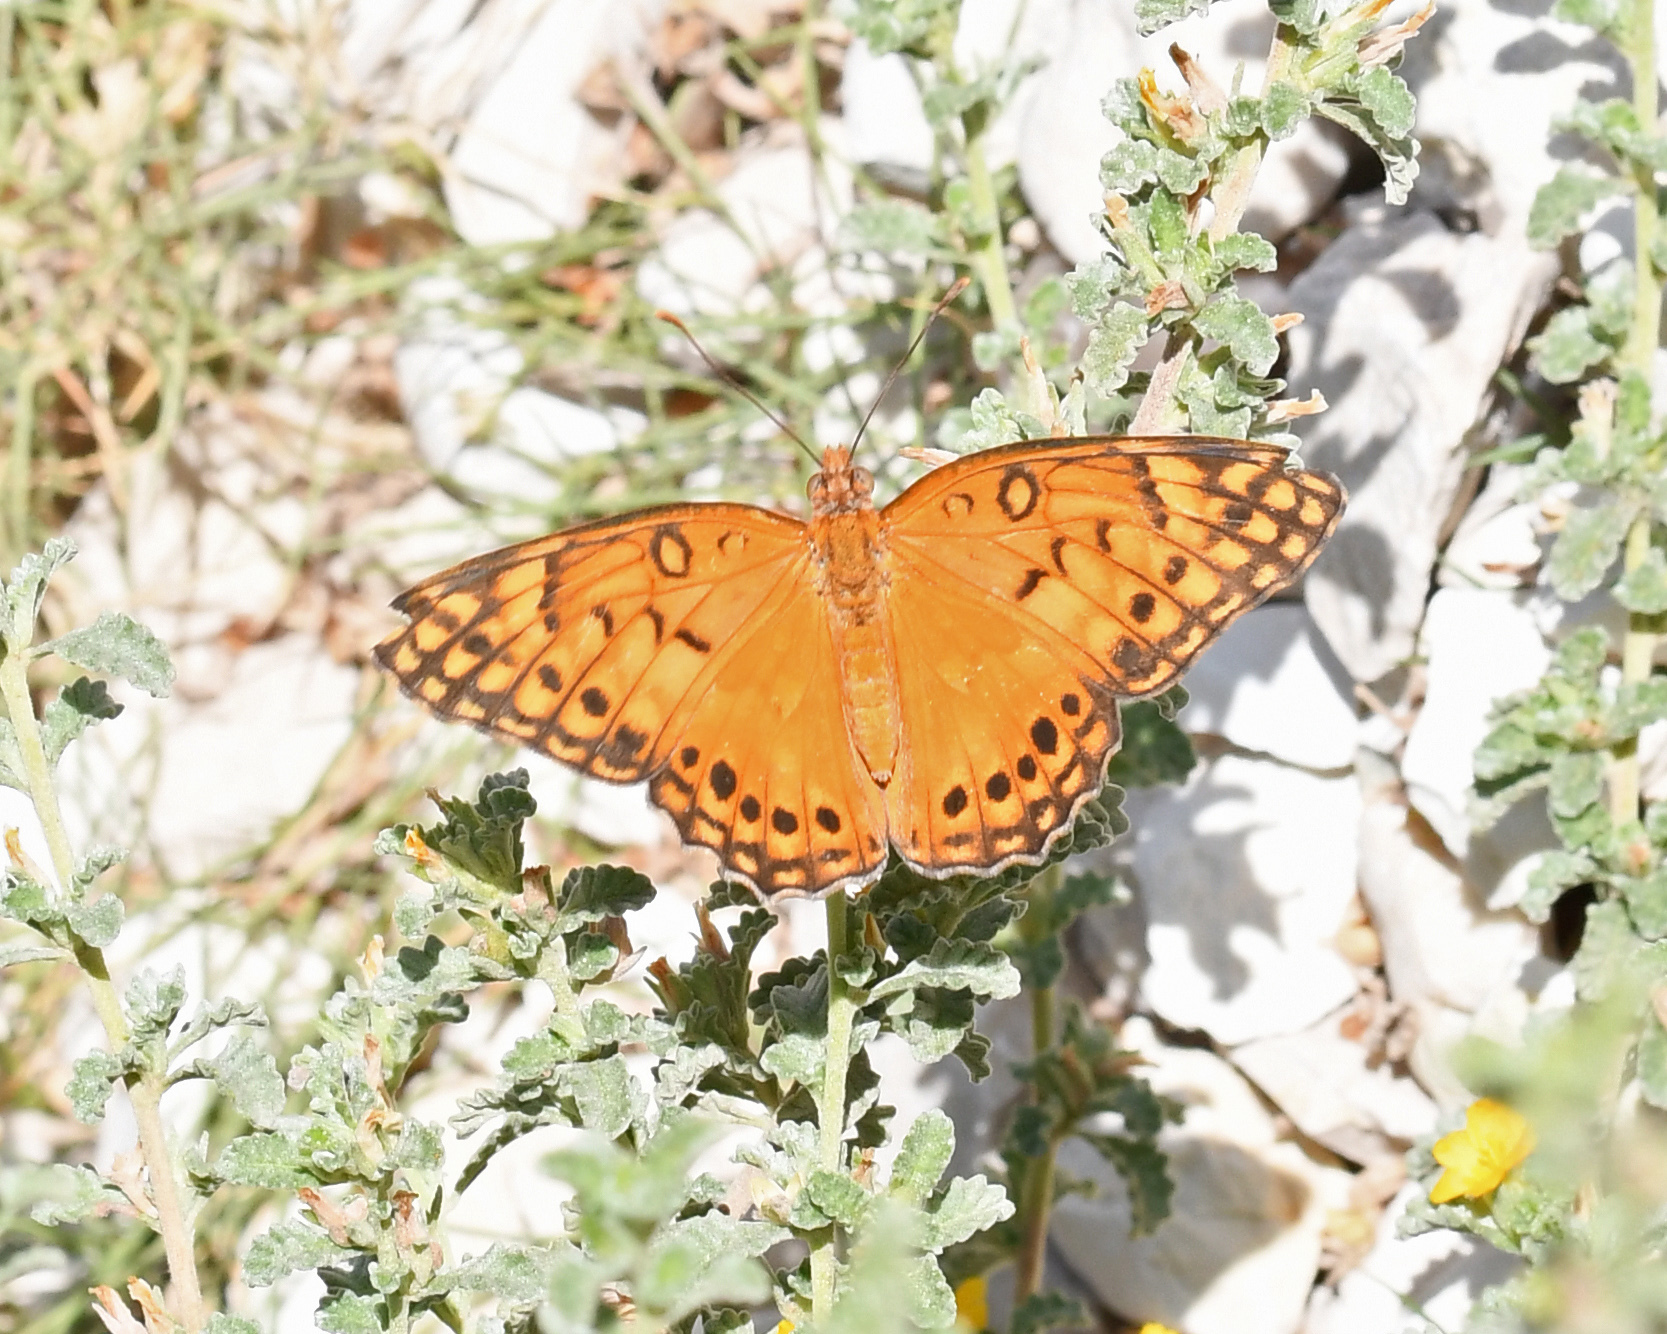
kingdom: Animalia
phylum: Arthropoda
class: Insecta
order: Lepidoptera
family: Nymphalidae
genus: Euptoieta
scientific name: Euptoieta hegesia
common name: Mexican fritillary
